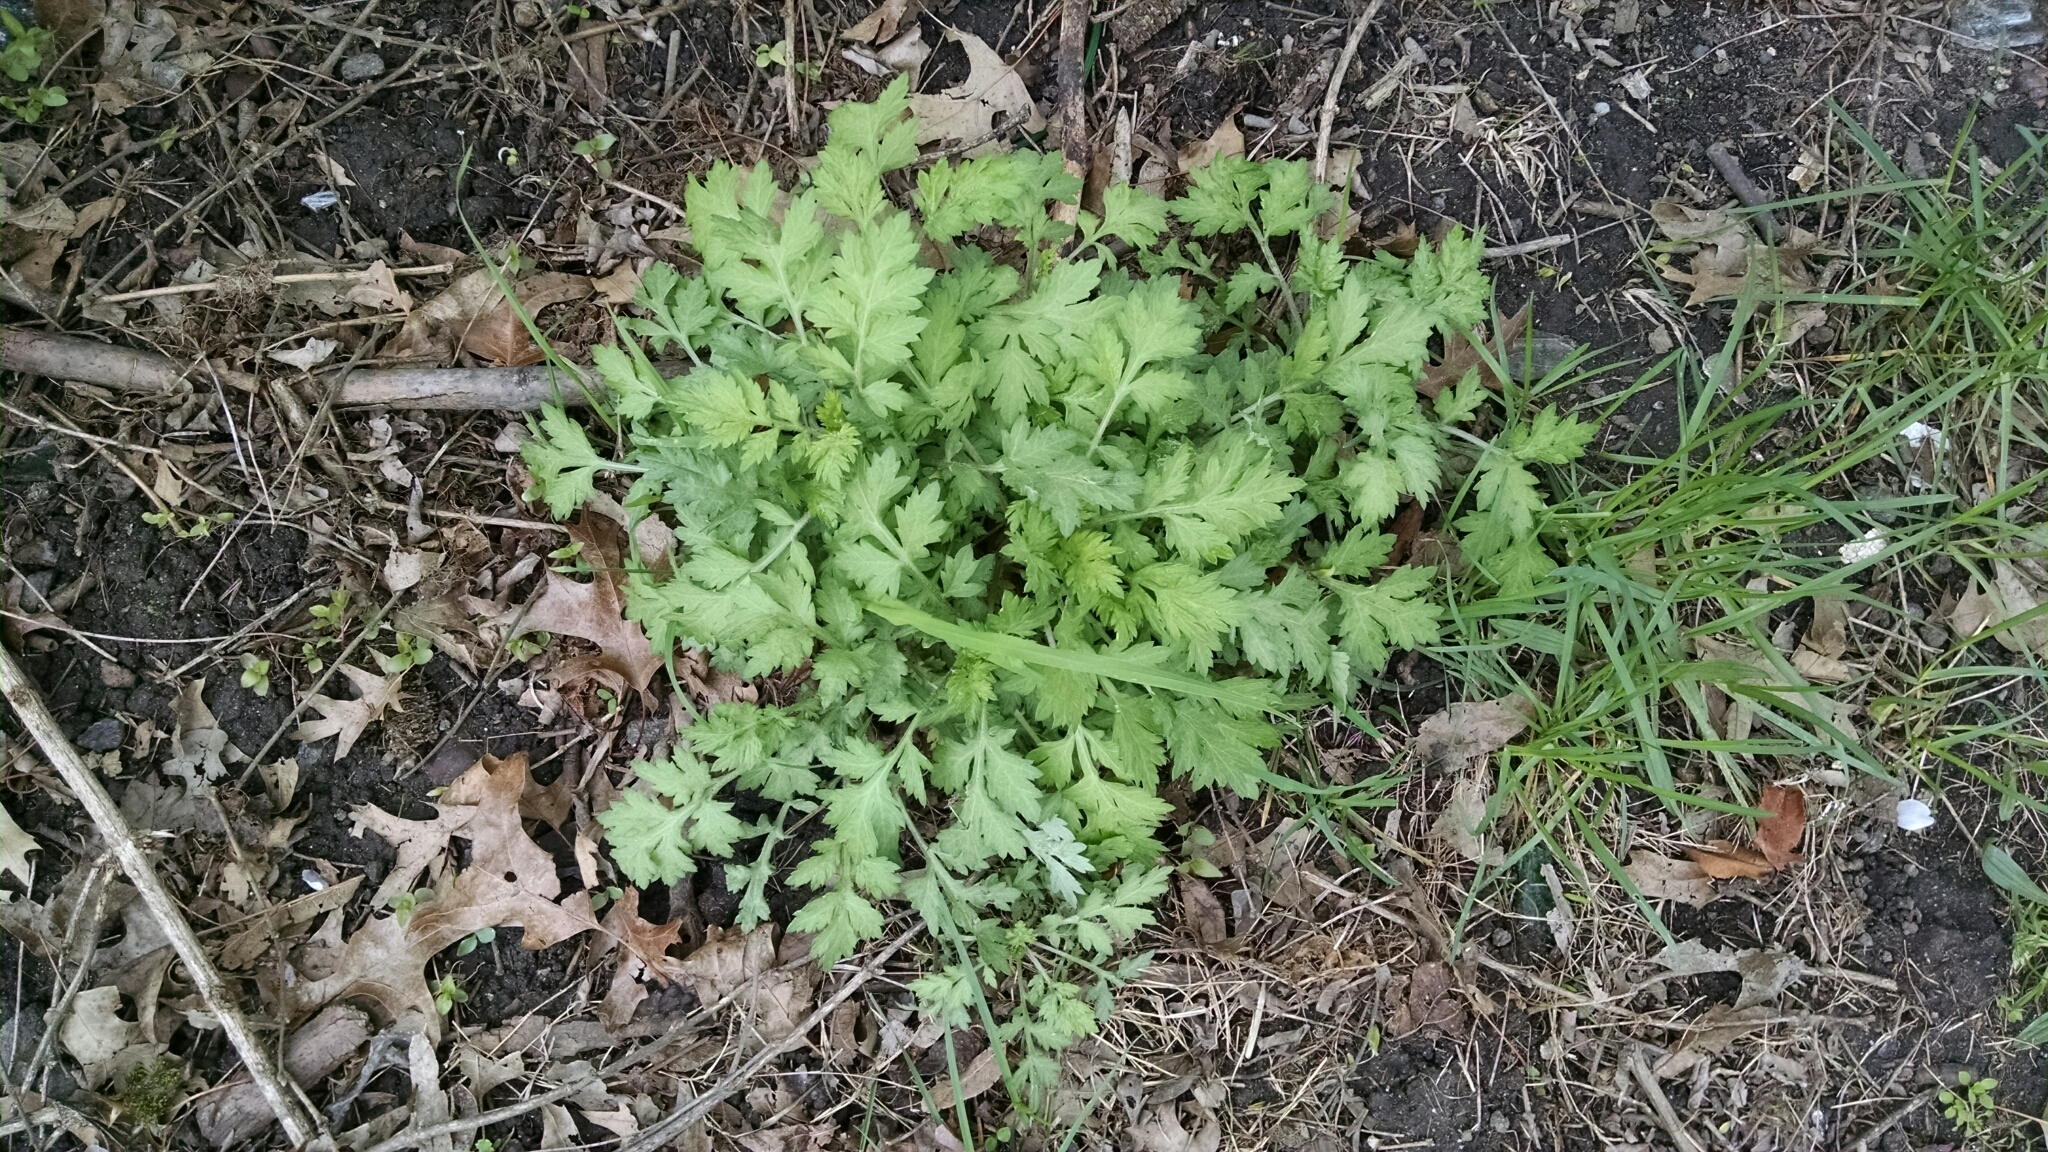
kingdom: Plantae
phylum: Tracheophyta
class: Magnoliopsida
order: Asterales
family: Asteraceae
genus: Artemisia
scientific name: Artemisia vulgaris
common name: Mugwort
